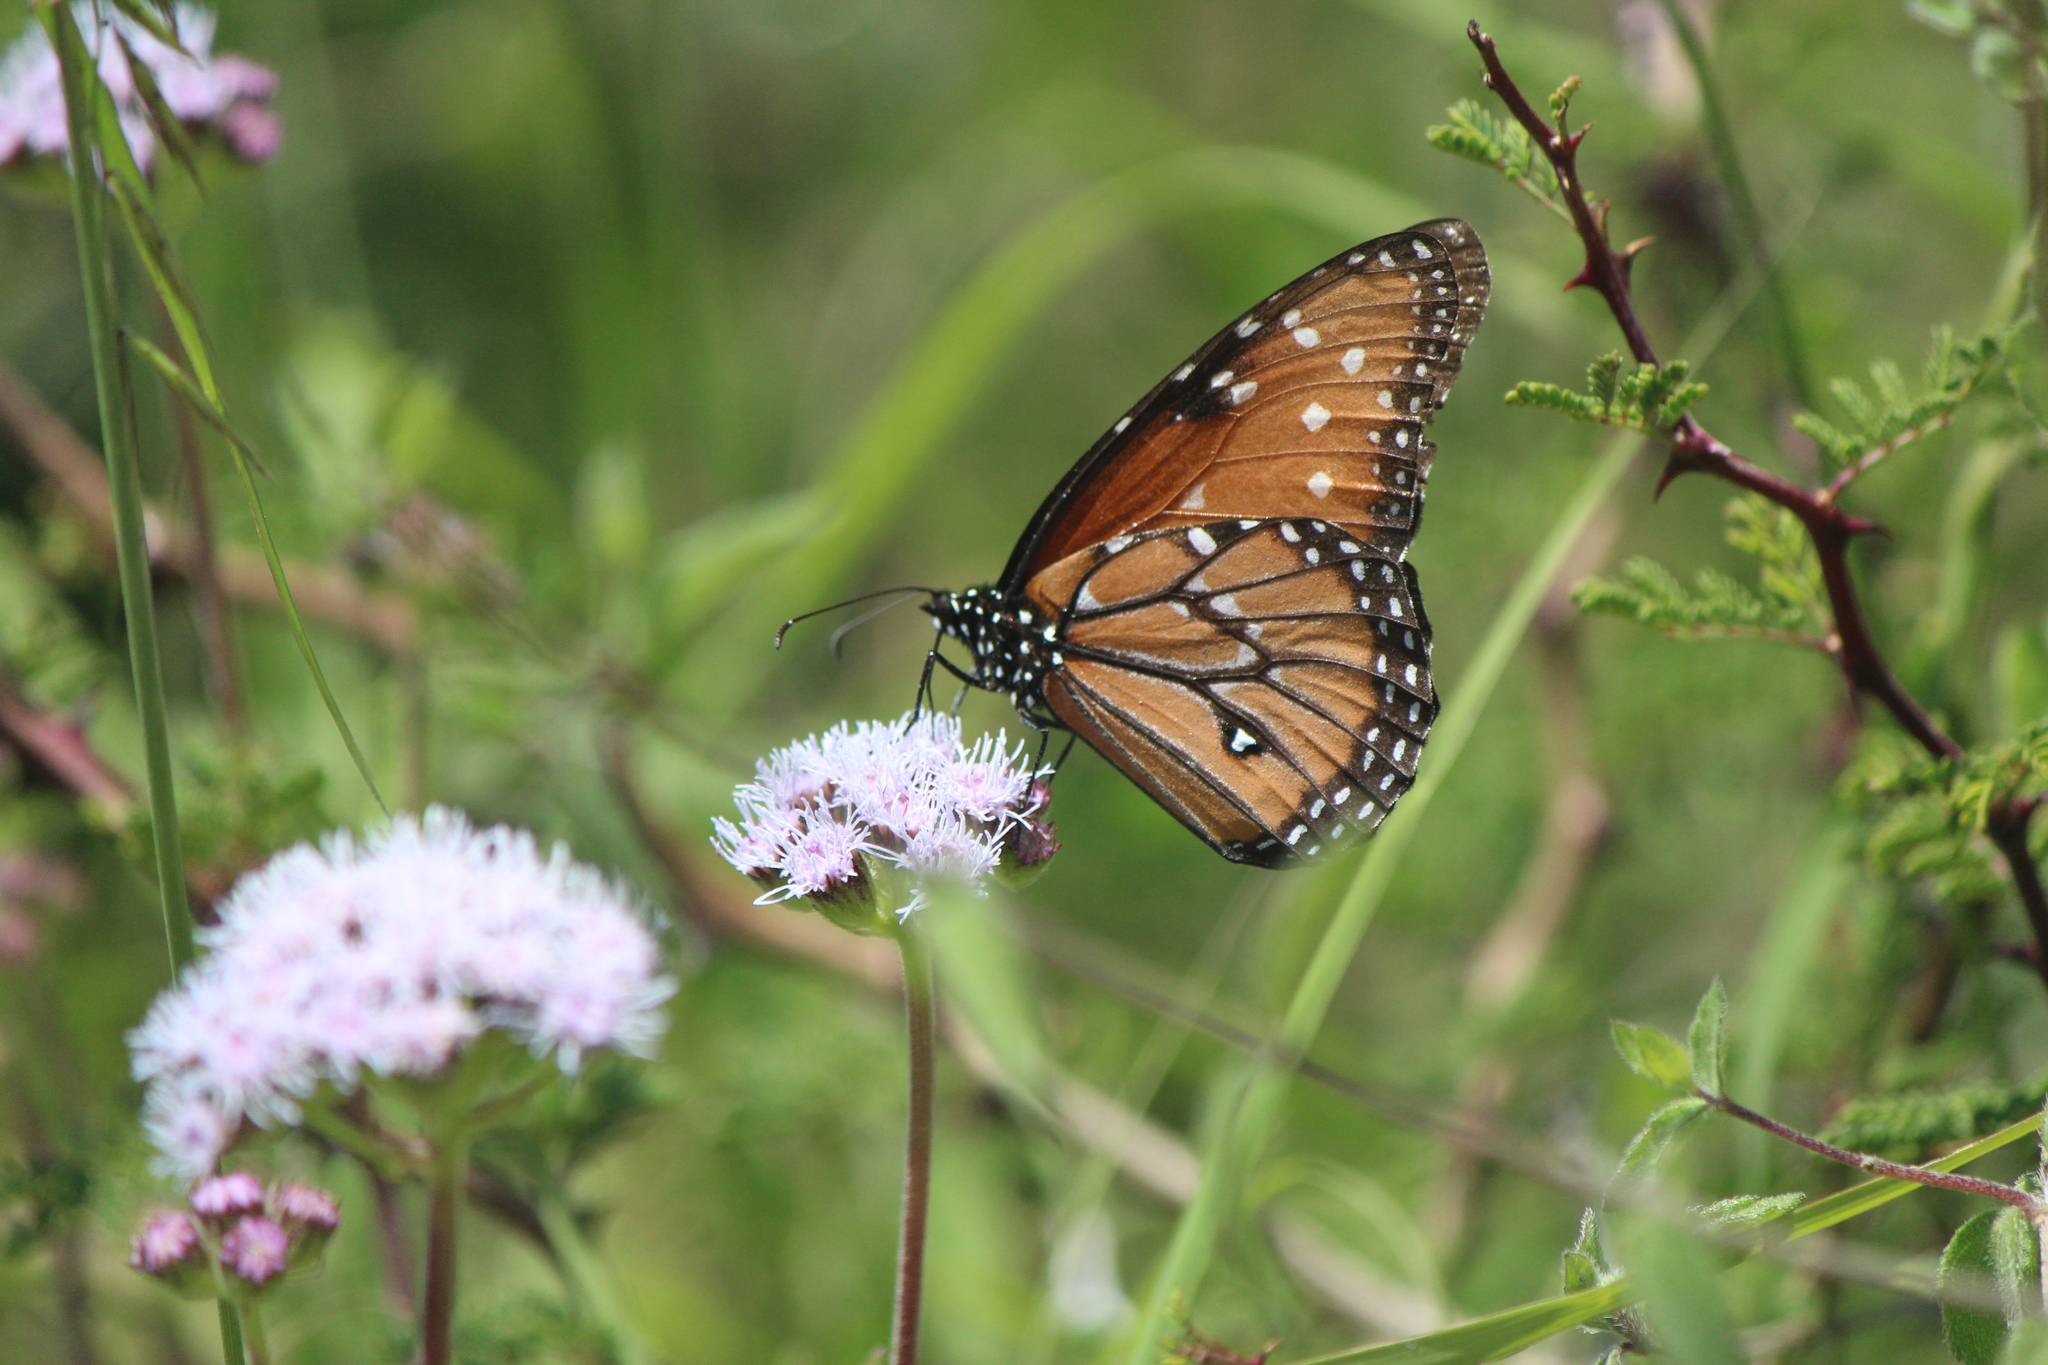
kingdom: Animalia
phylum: Arthropoda
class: Insecta
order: Lepidoptera
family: Nymphalidae
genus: Danaus
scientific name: Danaus gilippus
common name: Queen
